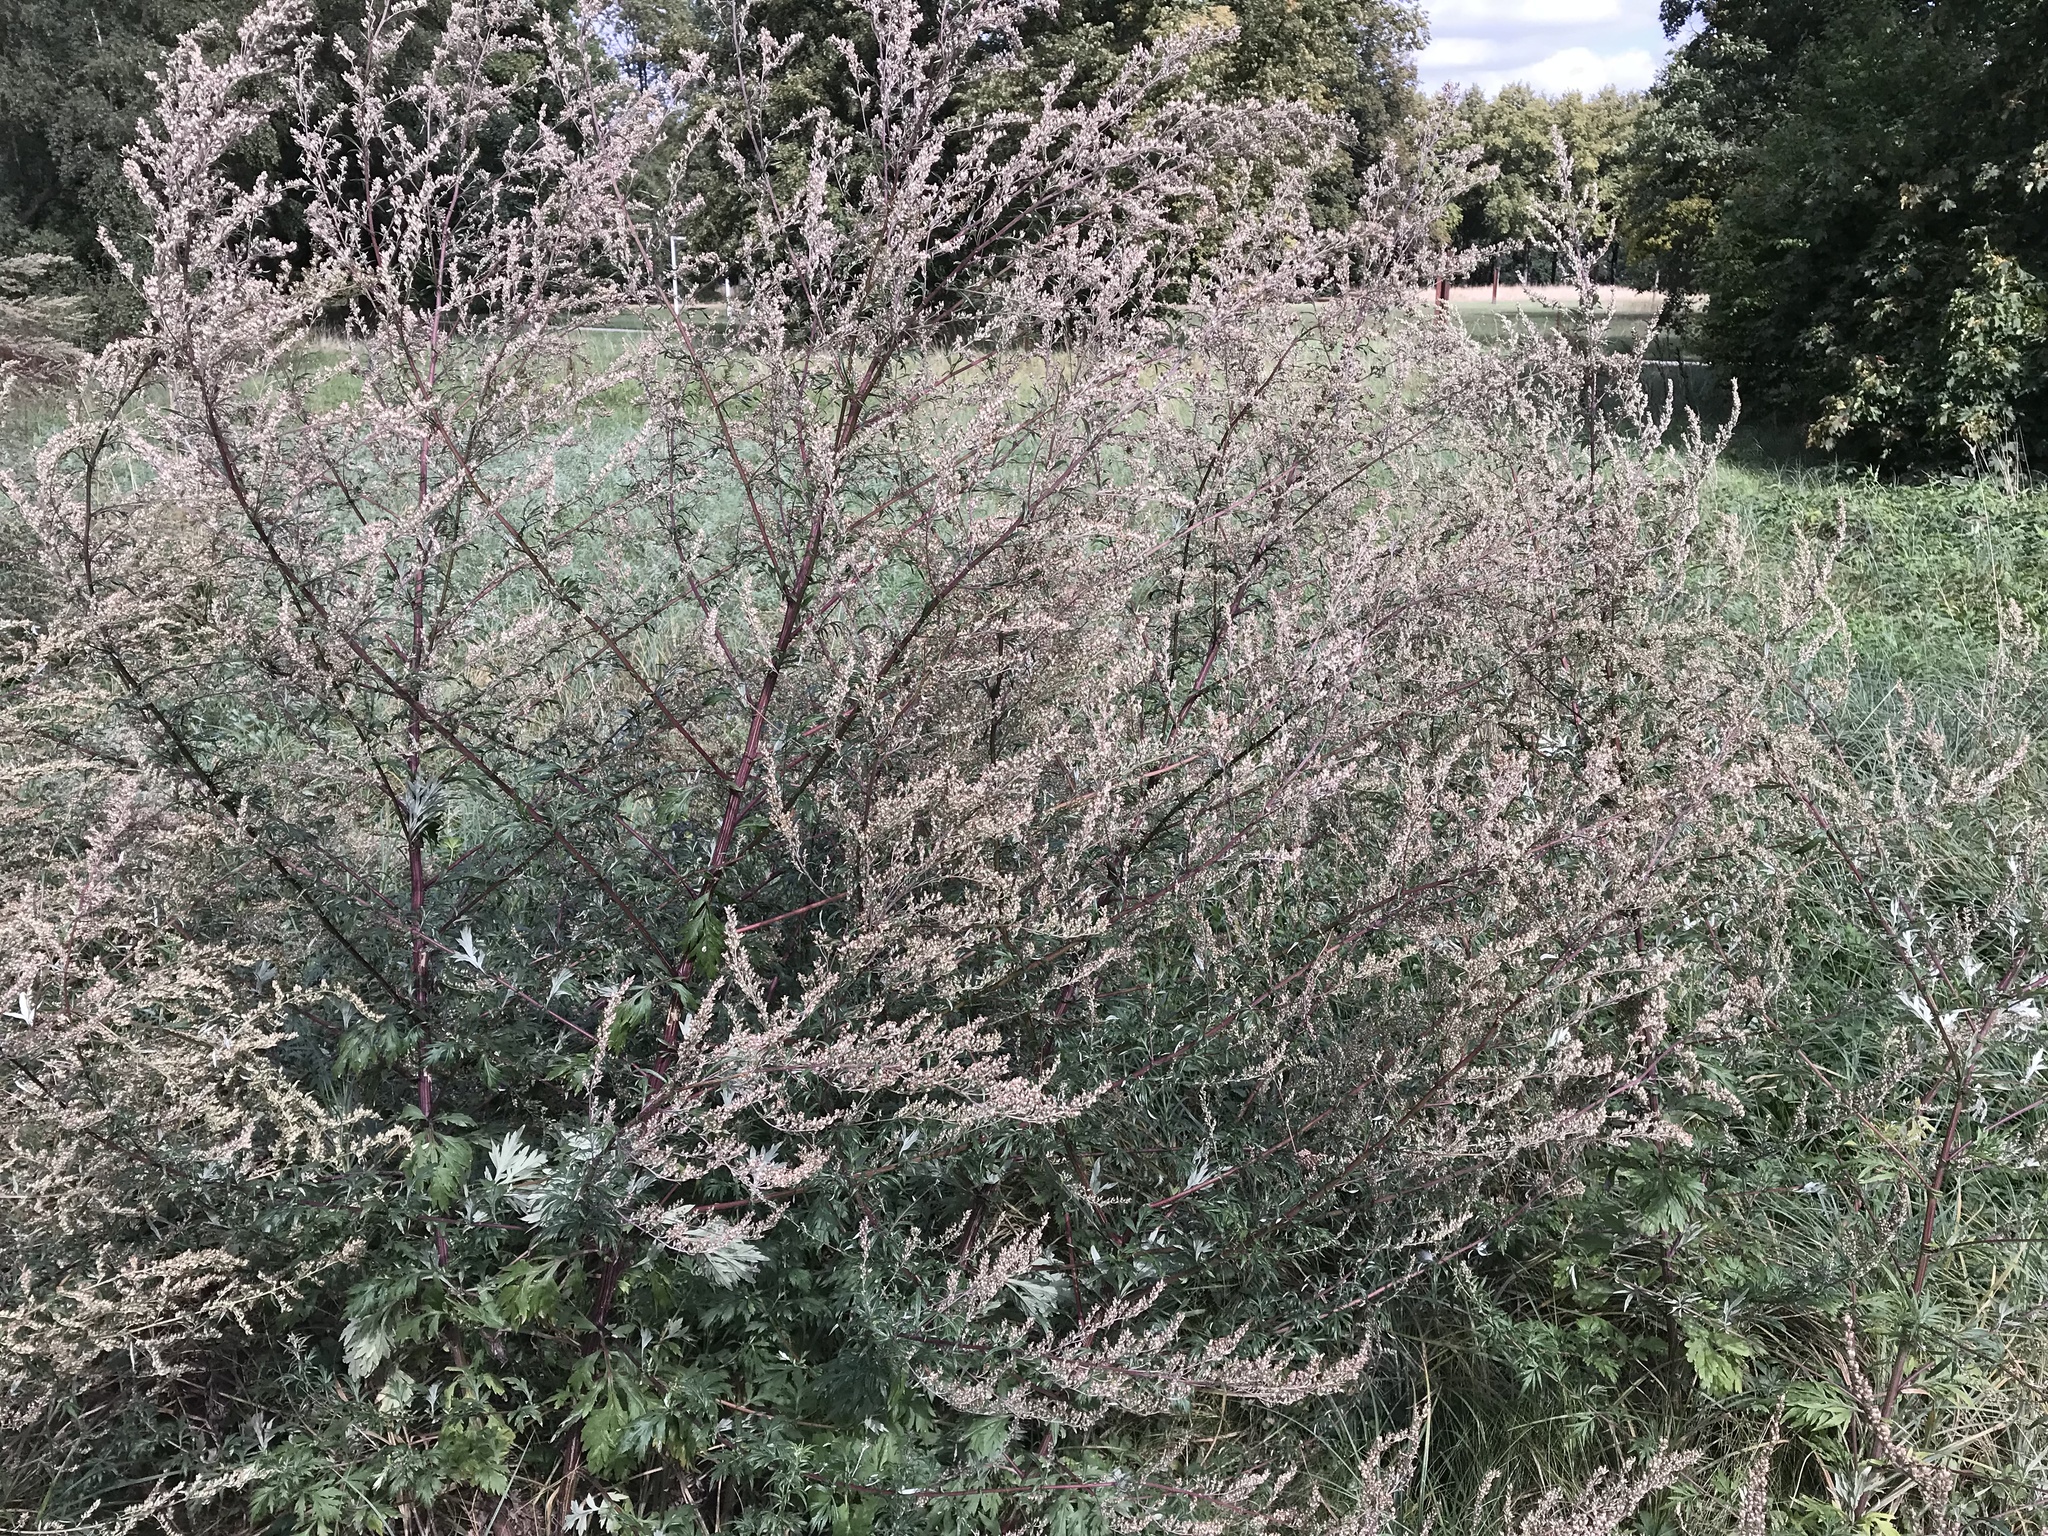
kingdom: Plantae
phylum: Tracheophyta
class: Magnoliopsida
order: Asterales
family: Asteraceae
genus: Artemisia
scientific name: Artemisia vulgaris
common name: Mugwort
